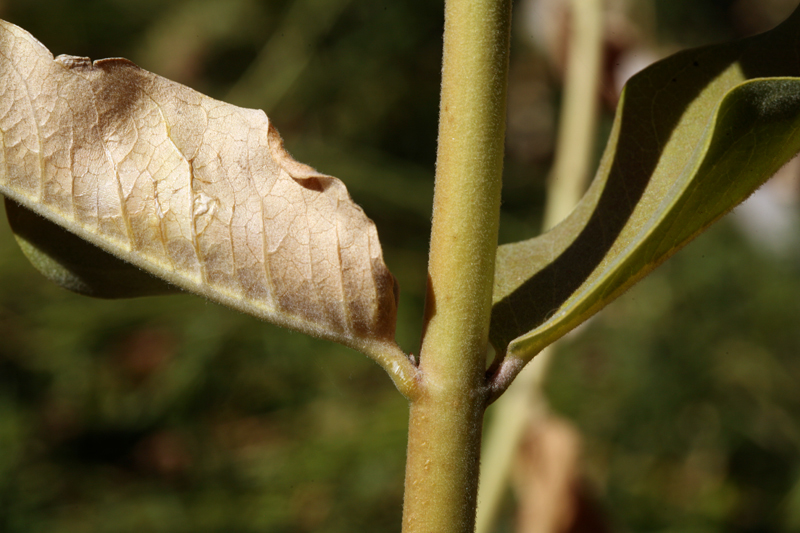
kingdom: Plantae
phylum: Tracheophyta
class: Magnoliopsida
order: Gentianales
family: Apocynaceae
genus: Asclepias
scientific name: Asclepias speciosa
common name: Showy milkweed
